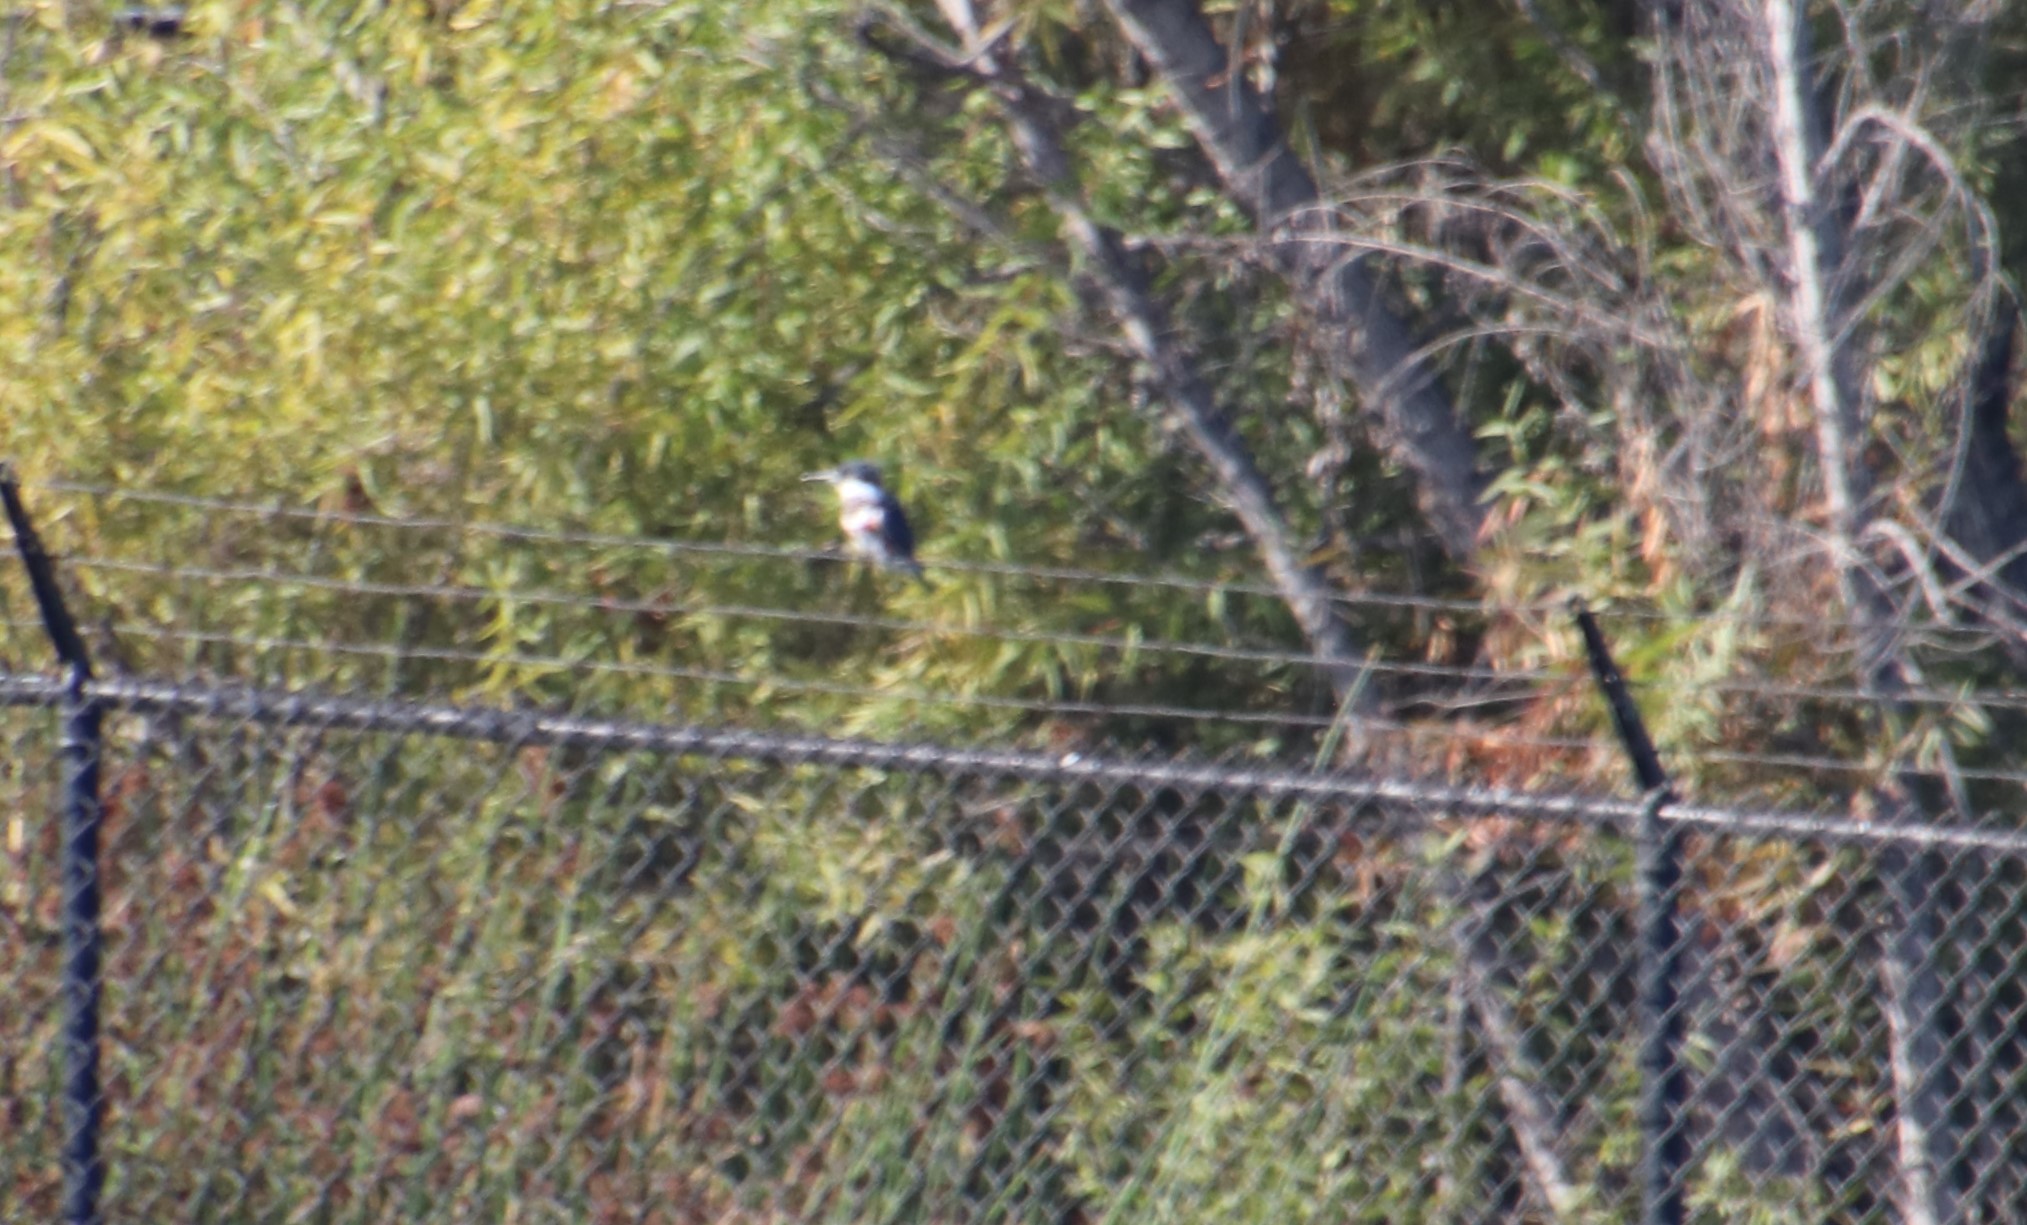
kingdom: Animalia
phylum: Chordata
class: Aves
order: Coraciiformes
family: Alcedinidae
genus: Megaceryle
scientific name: Megaceryle alcyon
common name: Belted kingfisher
